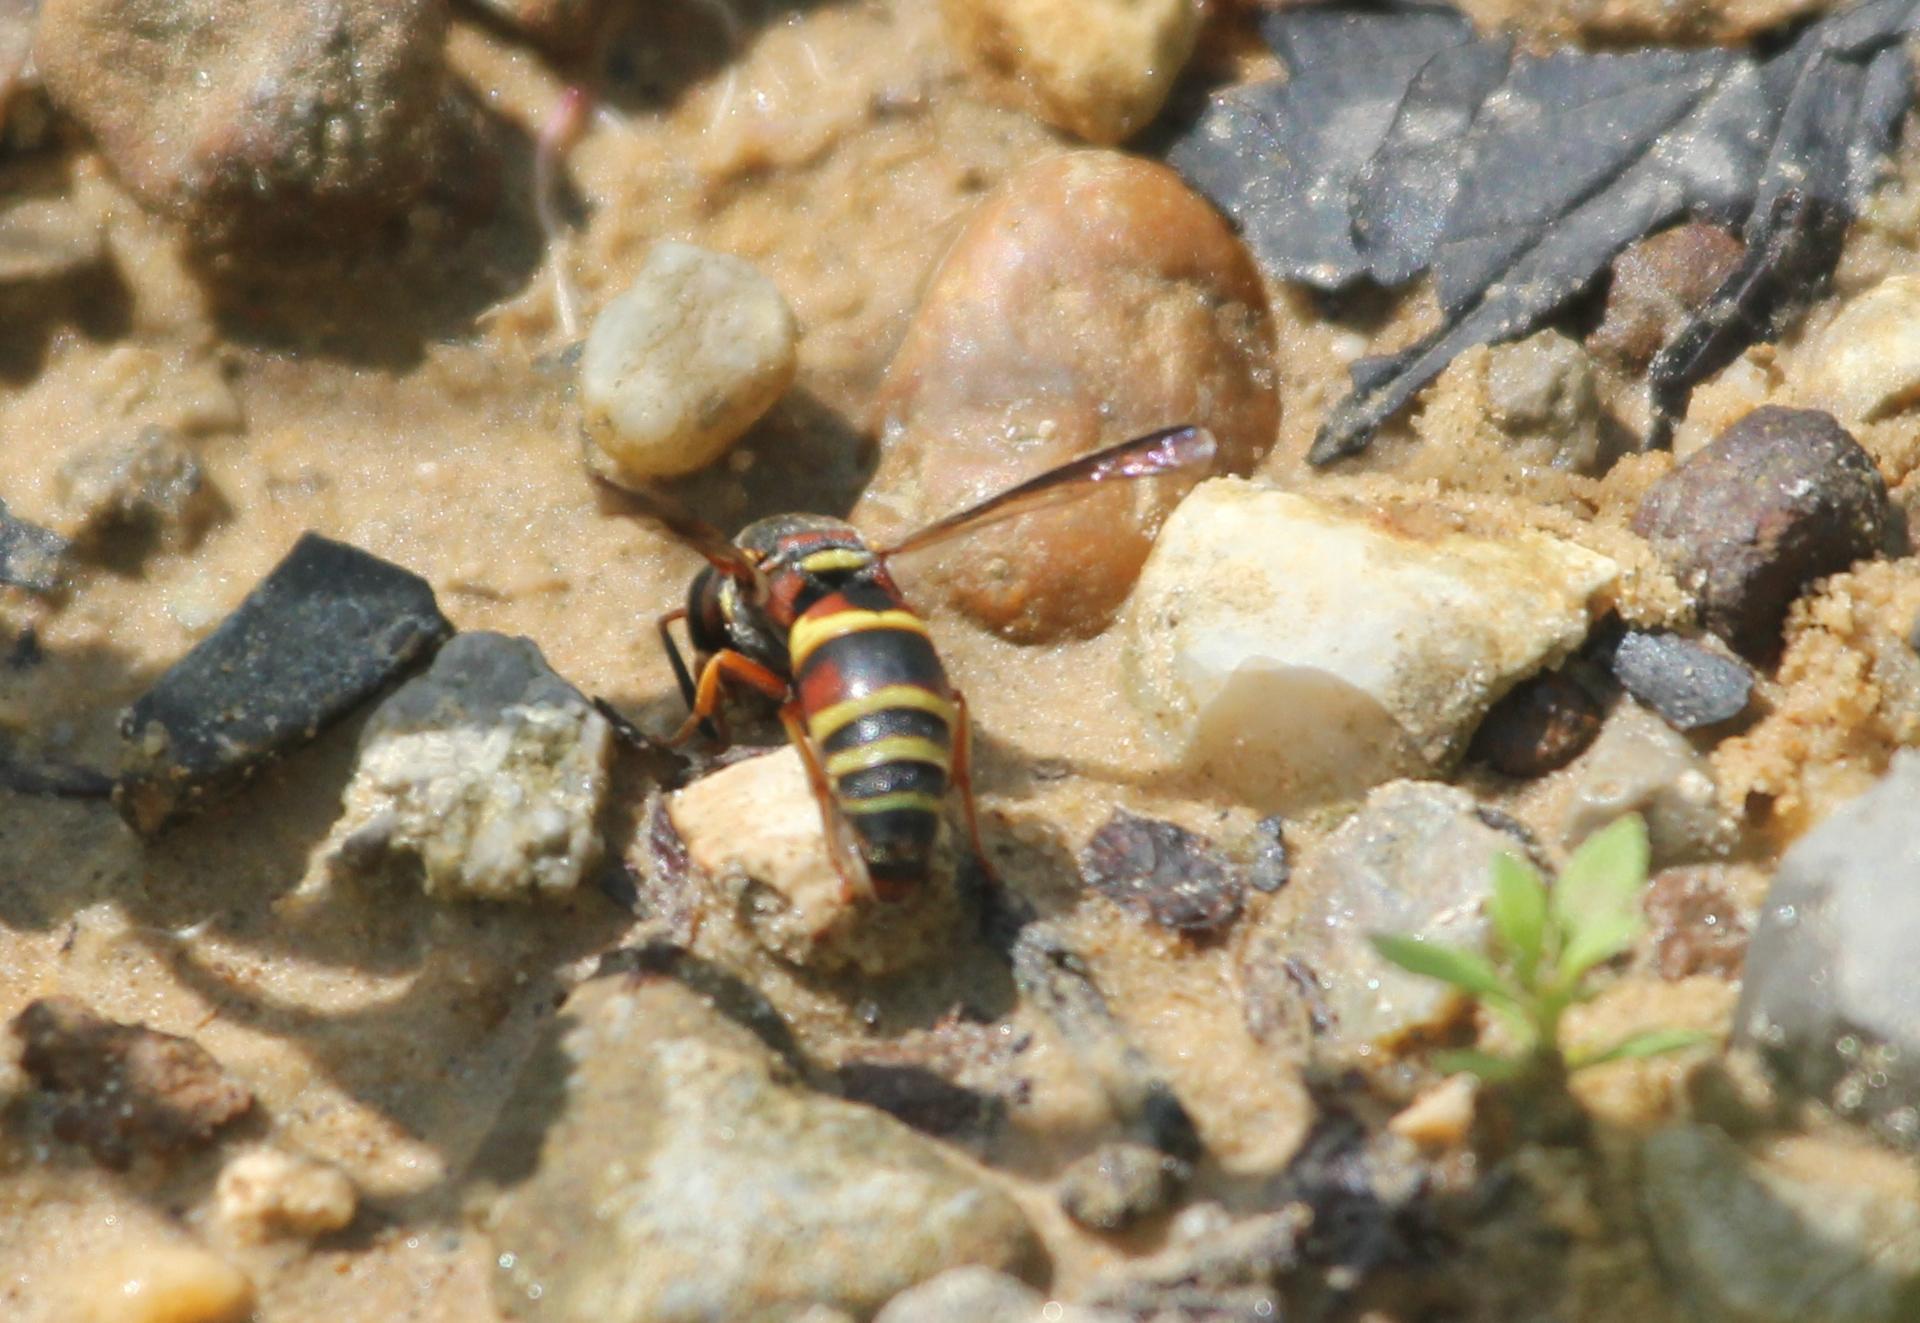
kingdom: Animalia
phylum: Arthropoda
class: Insecta
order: Hymenoptera
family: Eumenidae
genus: Euodynerus
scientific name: Euodynerus hidalgo
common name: Wasp
